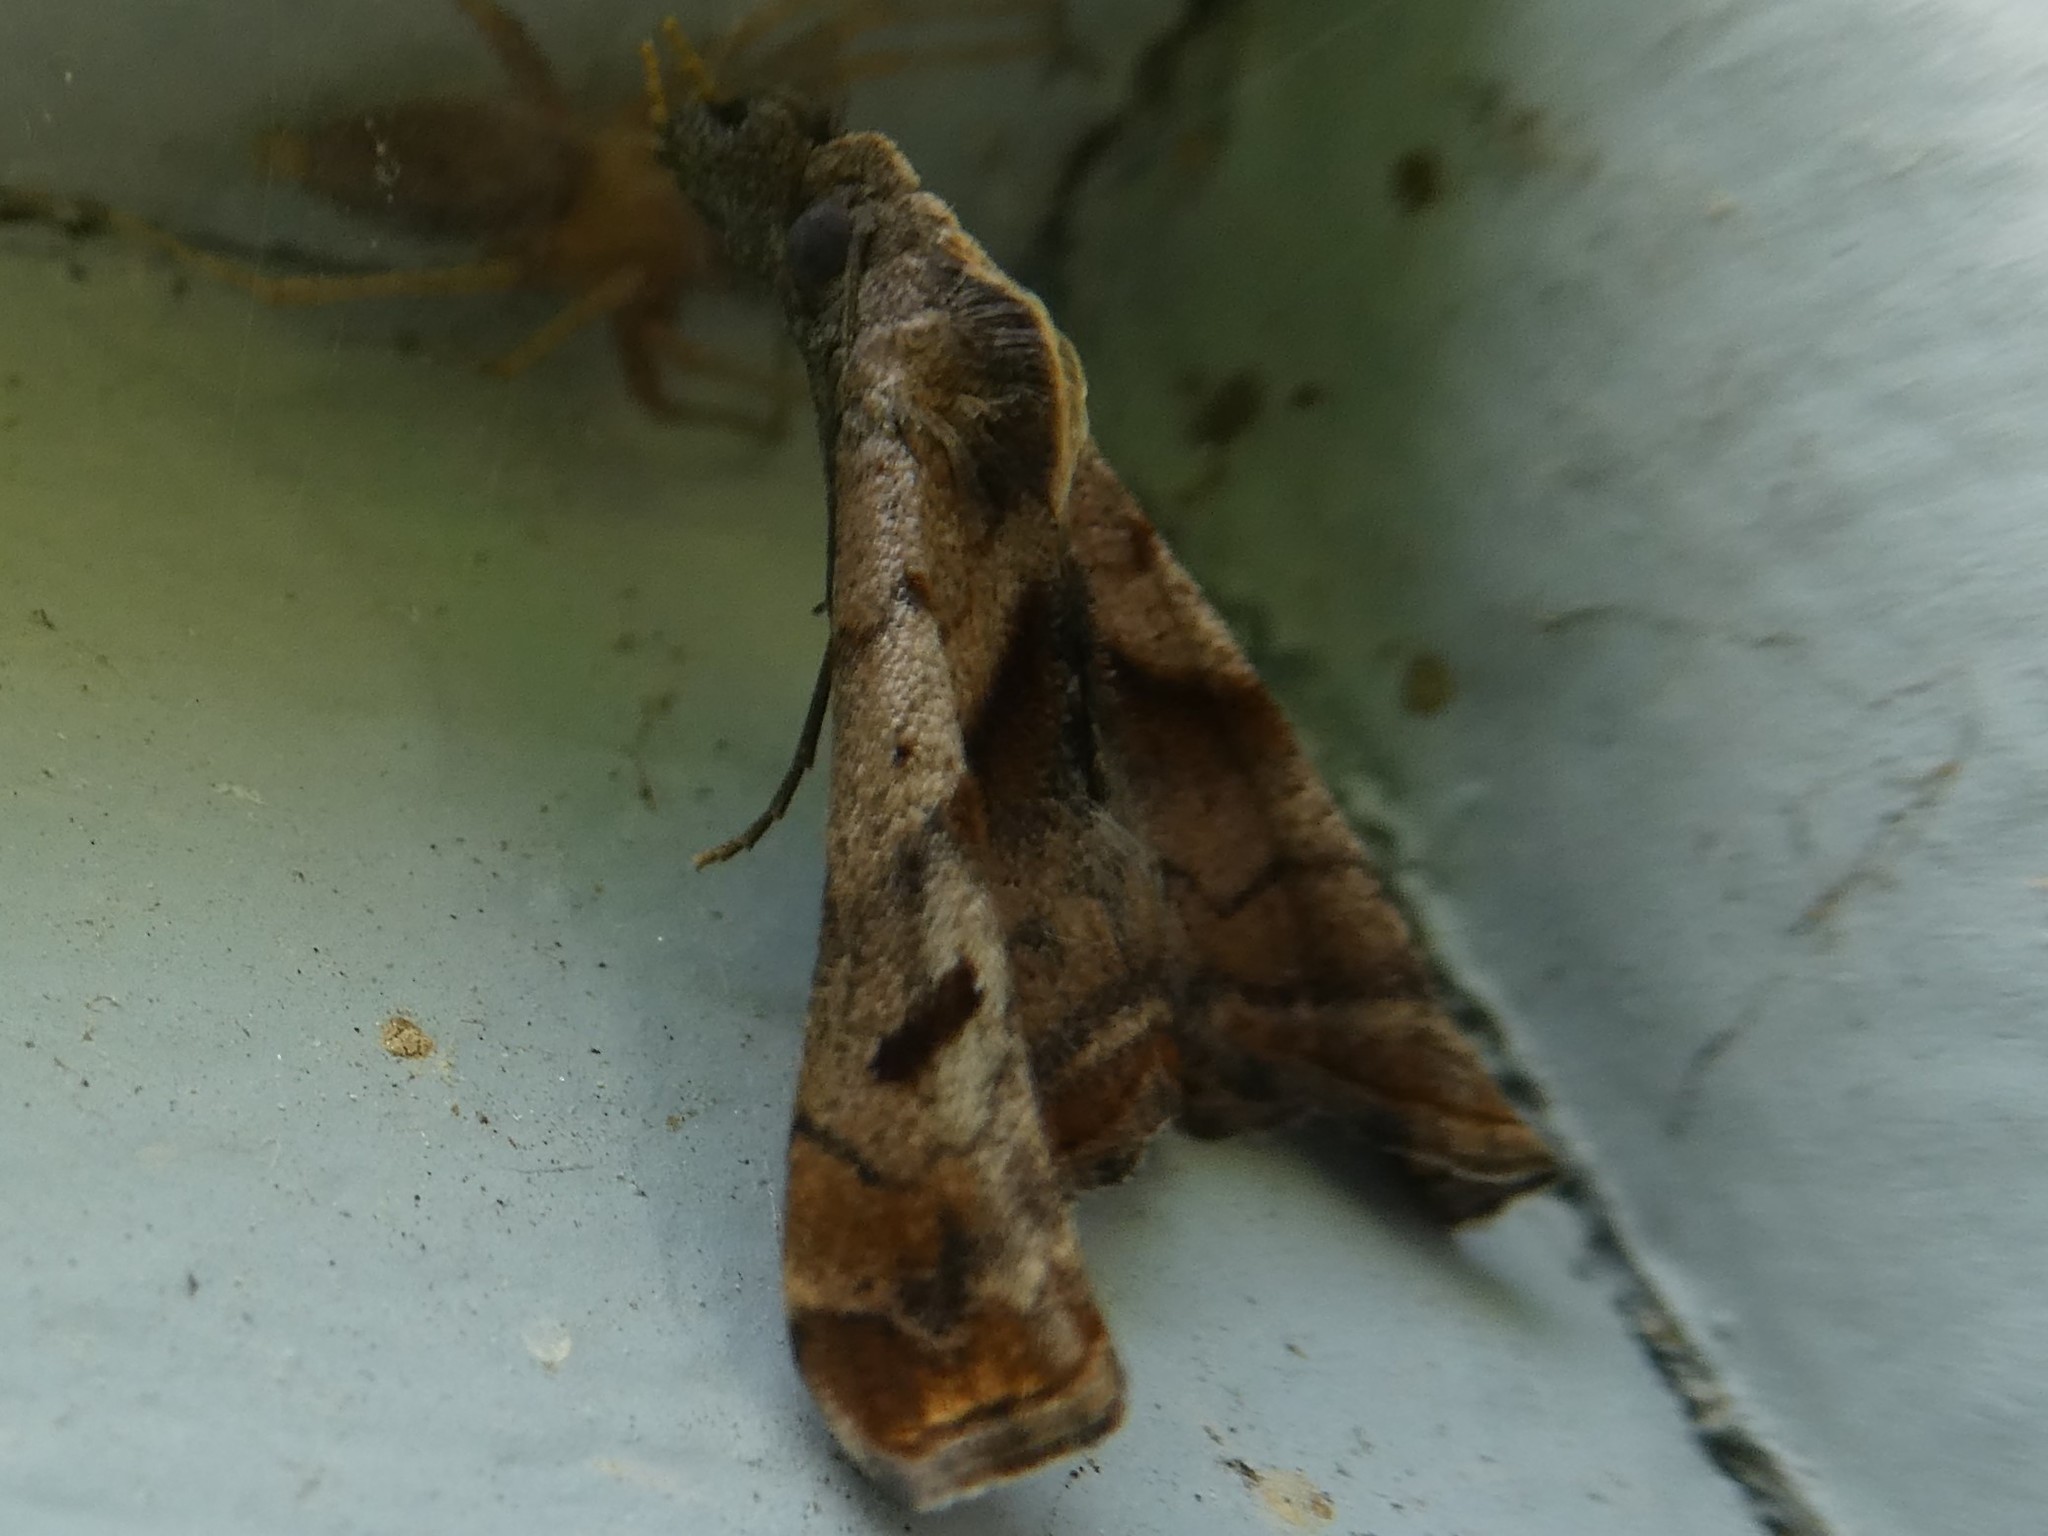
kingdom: Animalia
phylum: Arthropoda
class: Insecta
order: Lepidoptera
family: Erebidae
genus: Palthis
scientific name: Palthis angulalis
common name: Dark-spotted palthis moth
